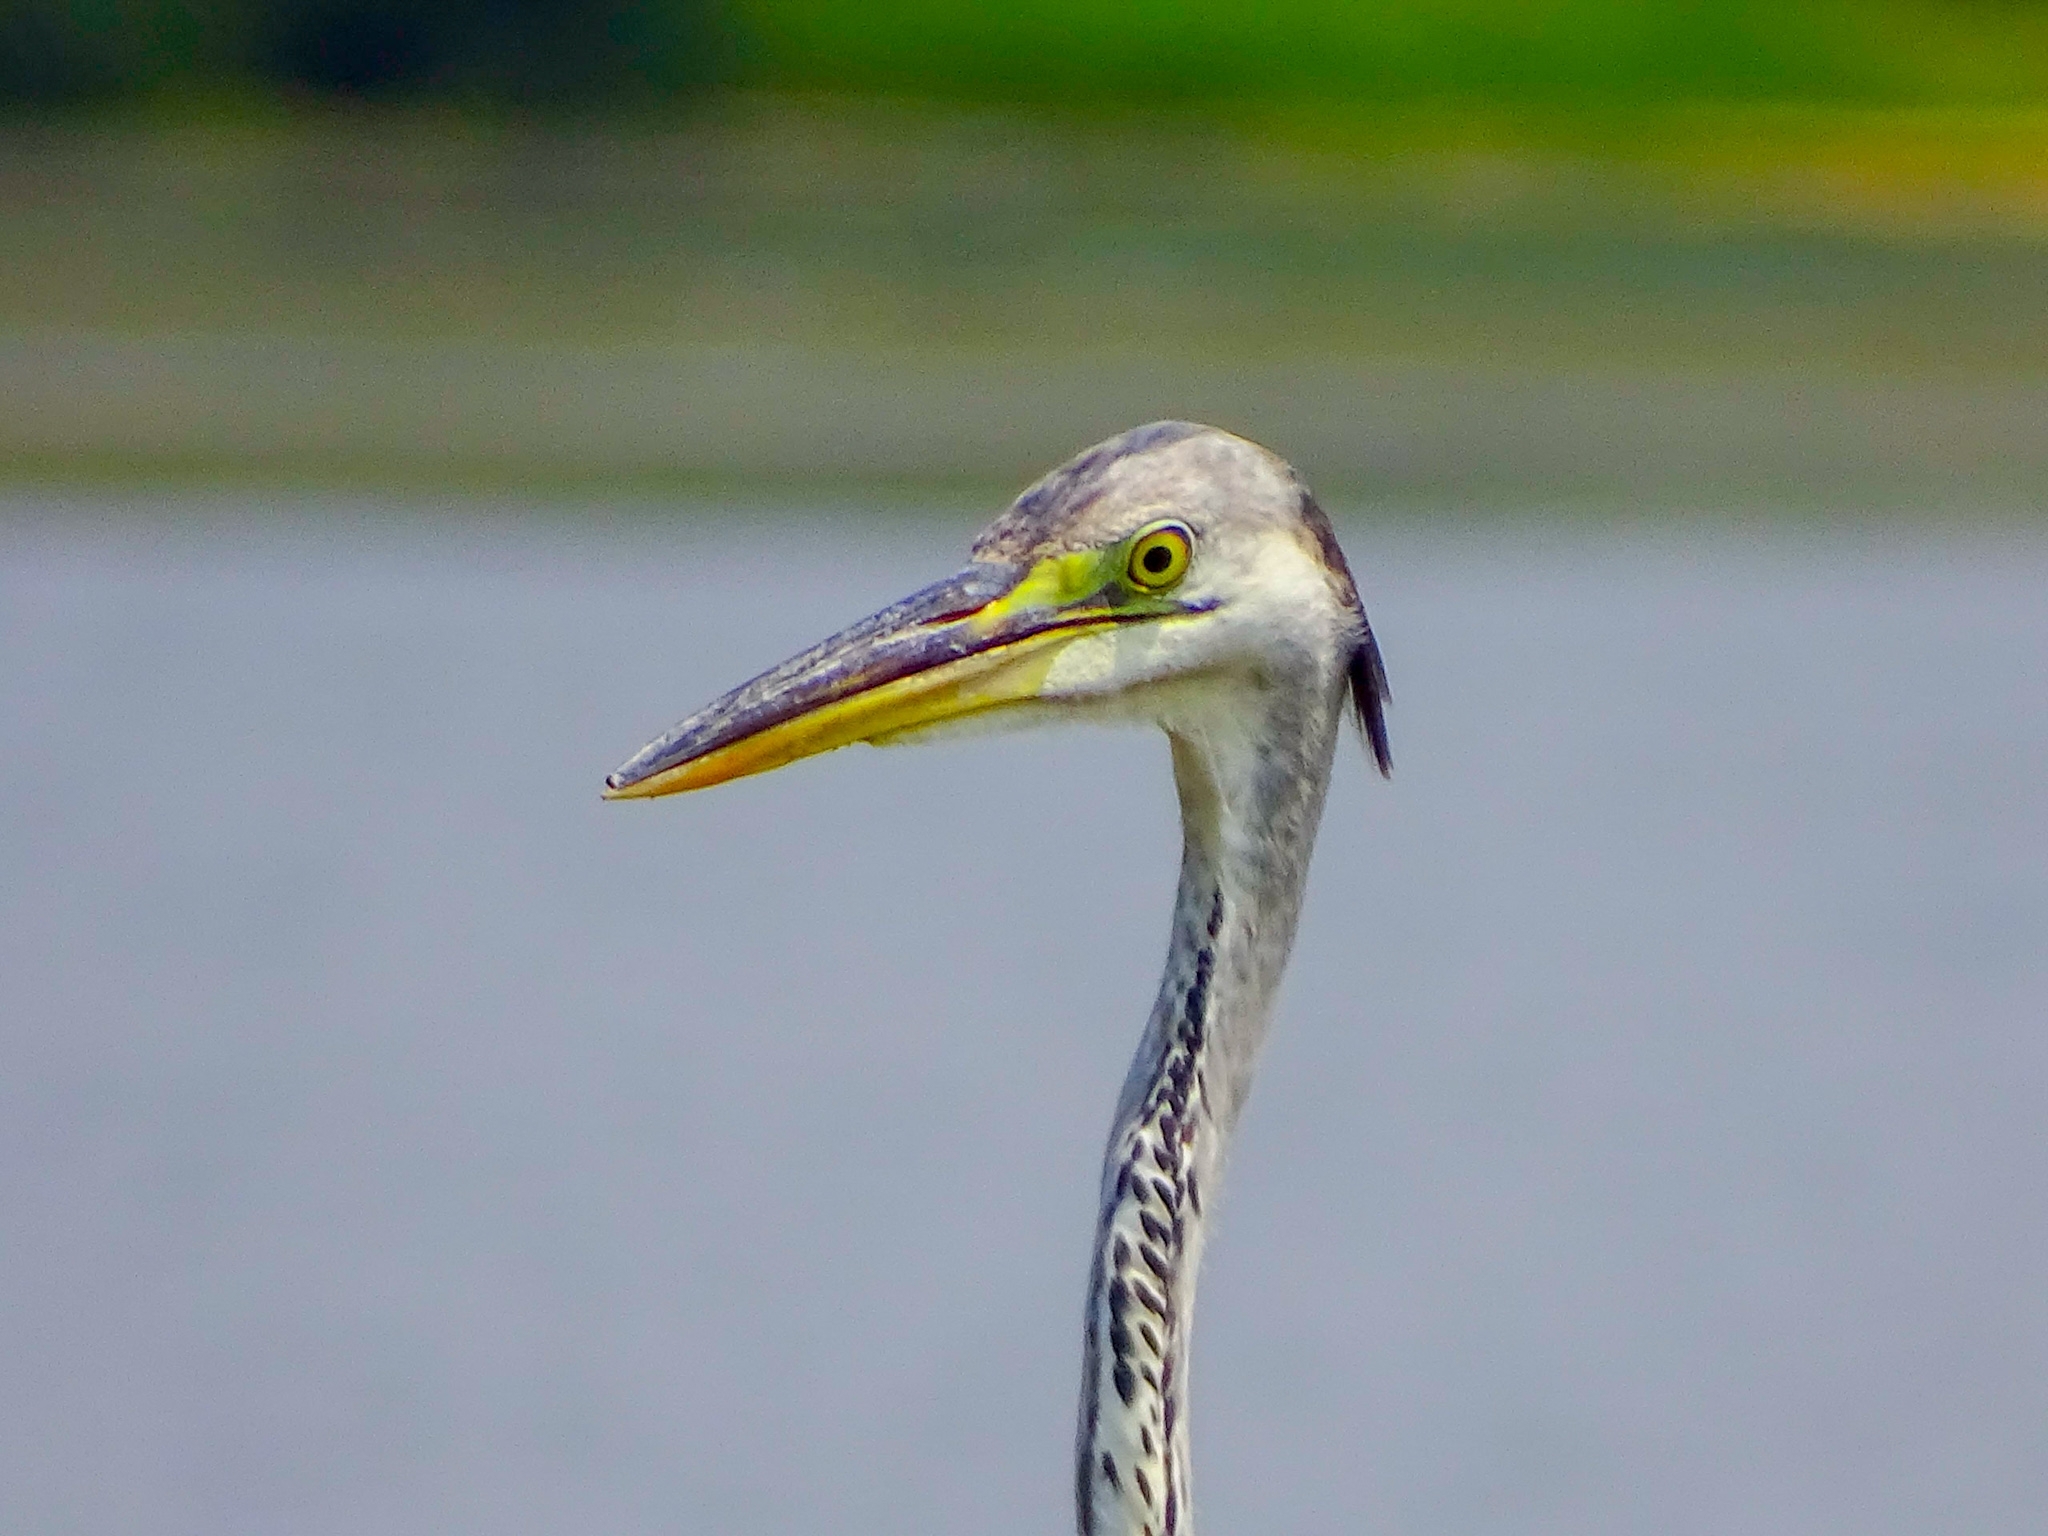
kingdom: Animalia
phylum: Chordata
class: Aves
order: Pelecaniformes
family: Ardeidae
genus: Ardea
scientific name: Ardea cinerea
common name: Grey heron
